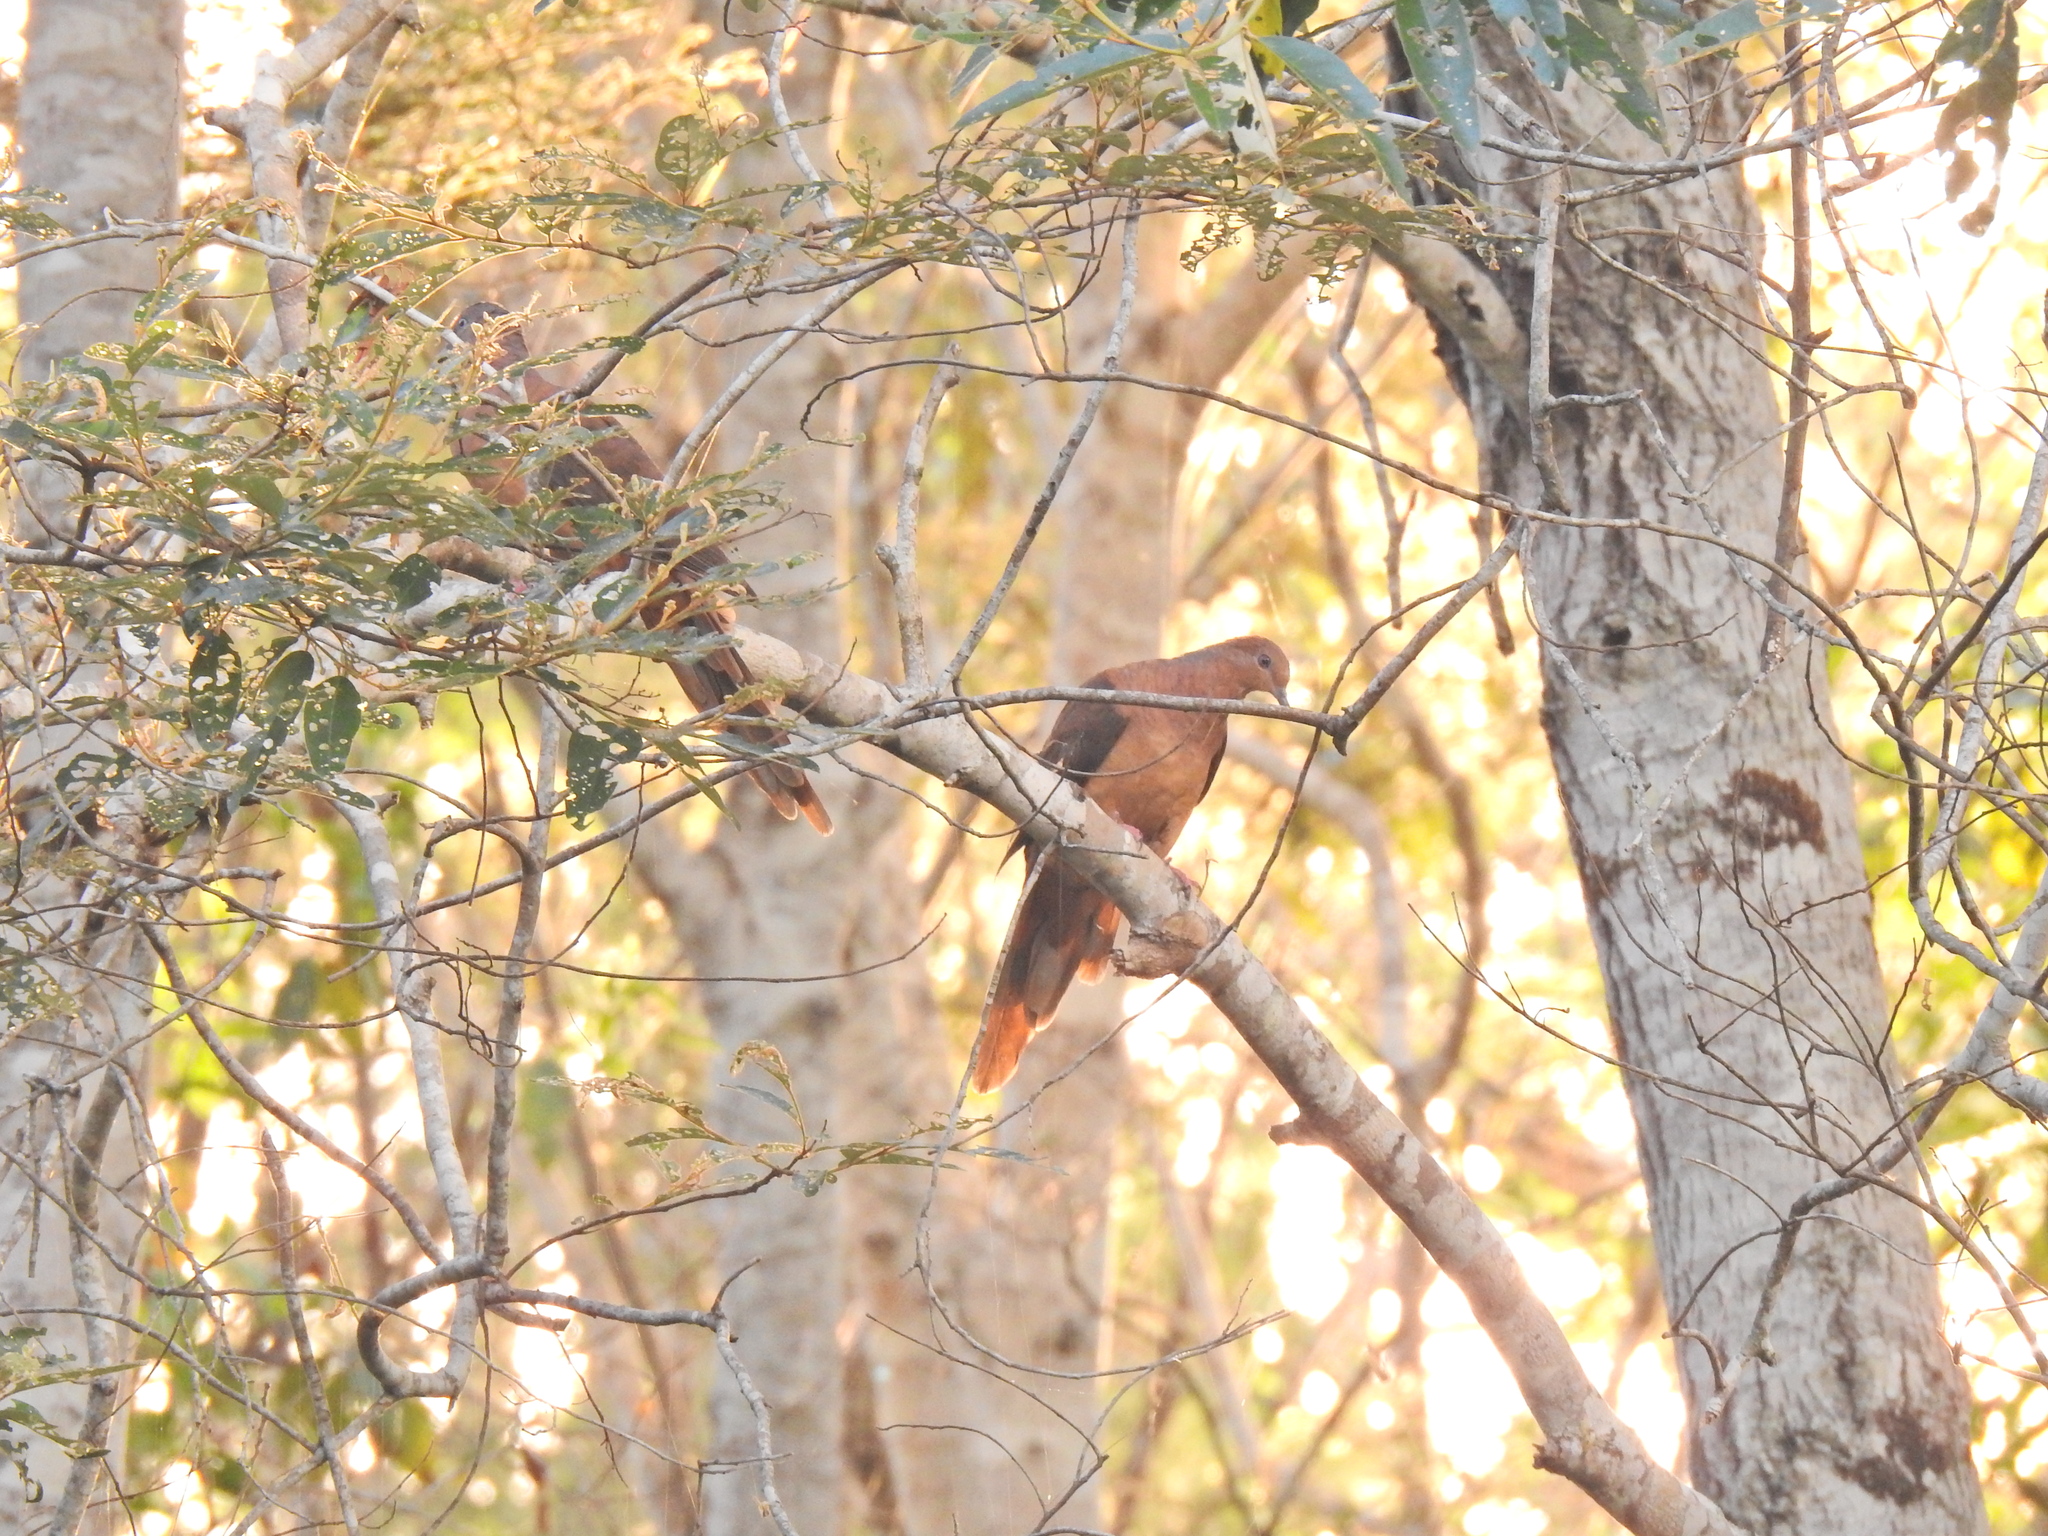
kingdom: Animalia
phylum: Chordata
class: Aves
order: Columbiformes
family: Columbidae
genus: Macropygia
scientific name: Macropygia phasianella
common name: Brown cuckoo-dove
